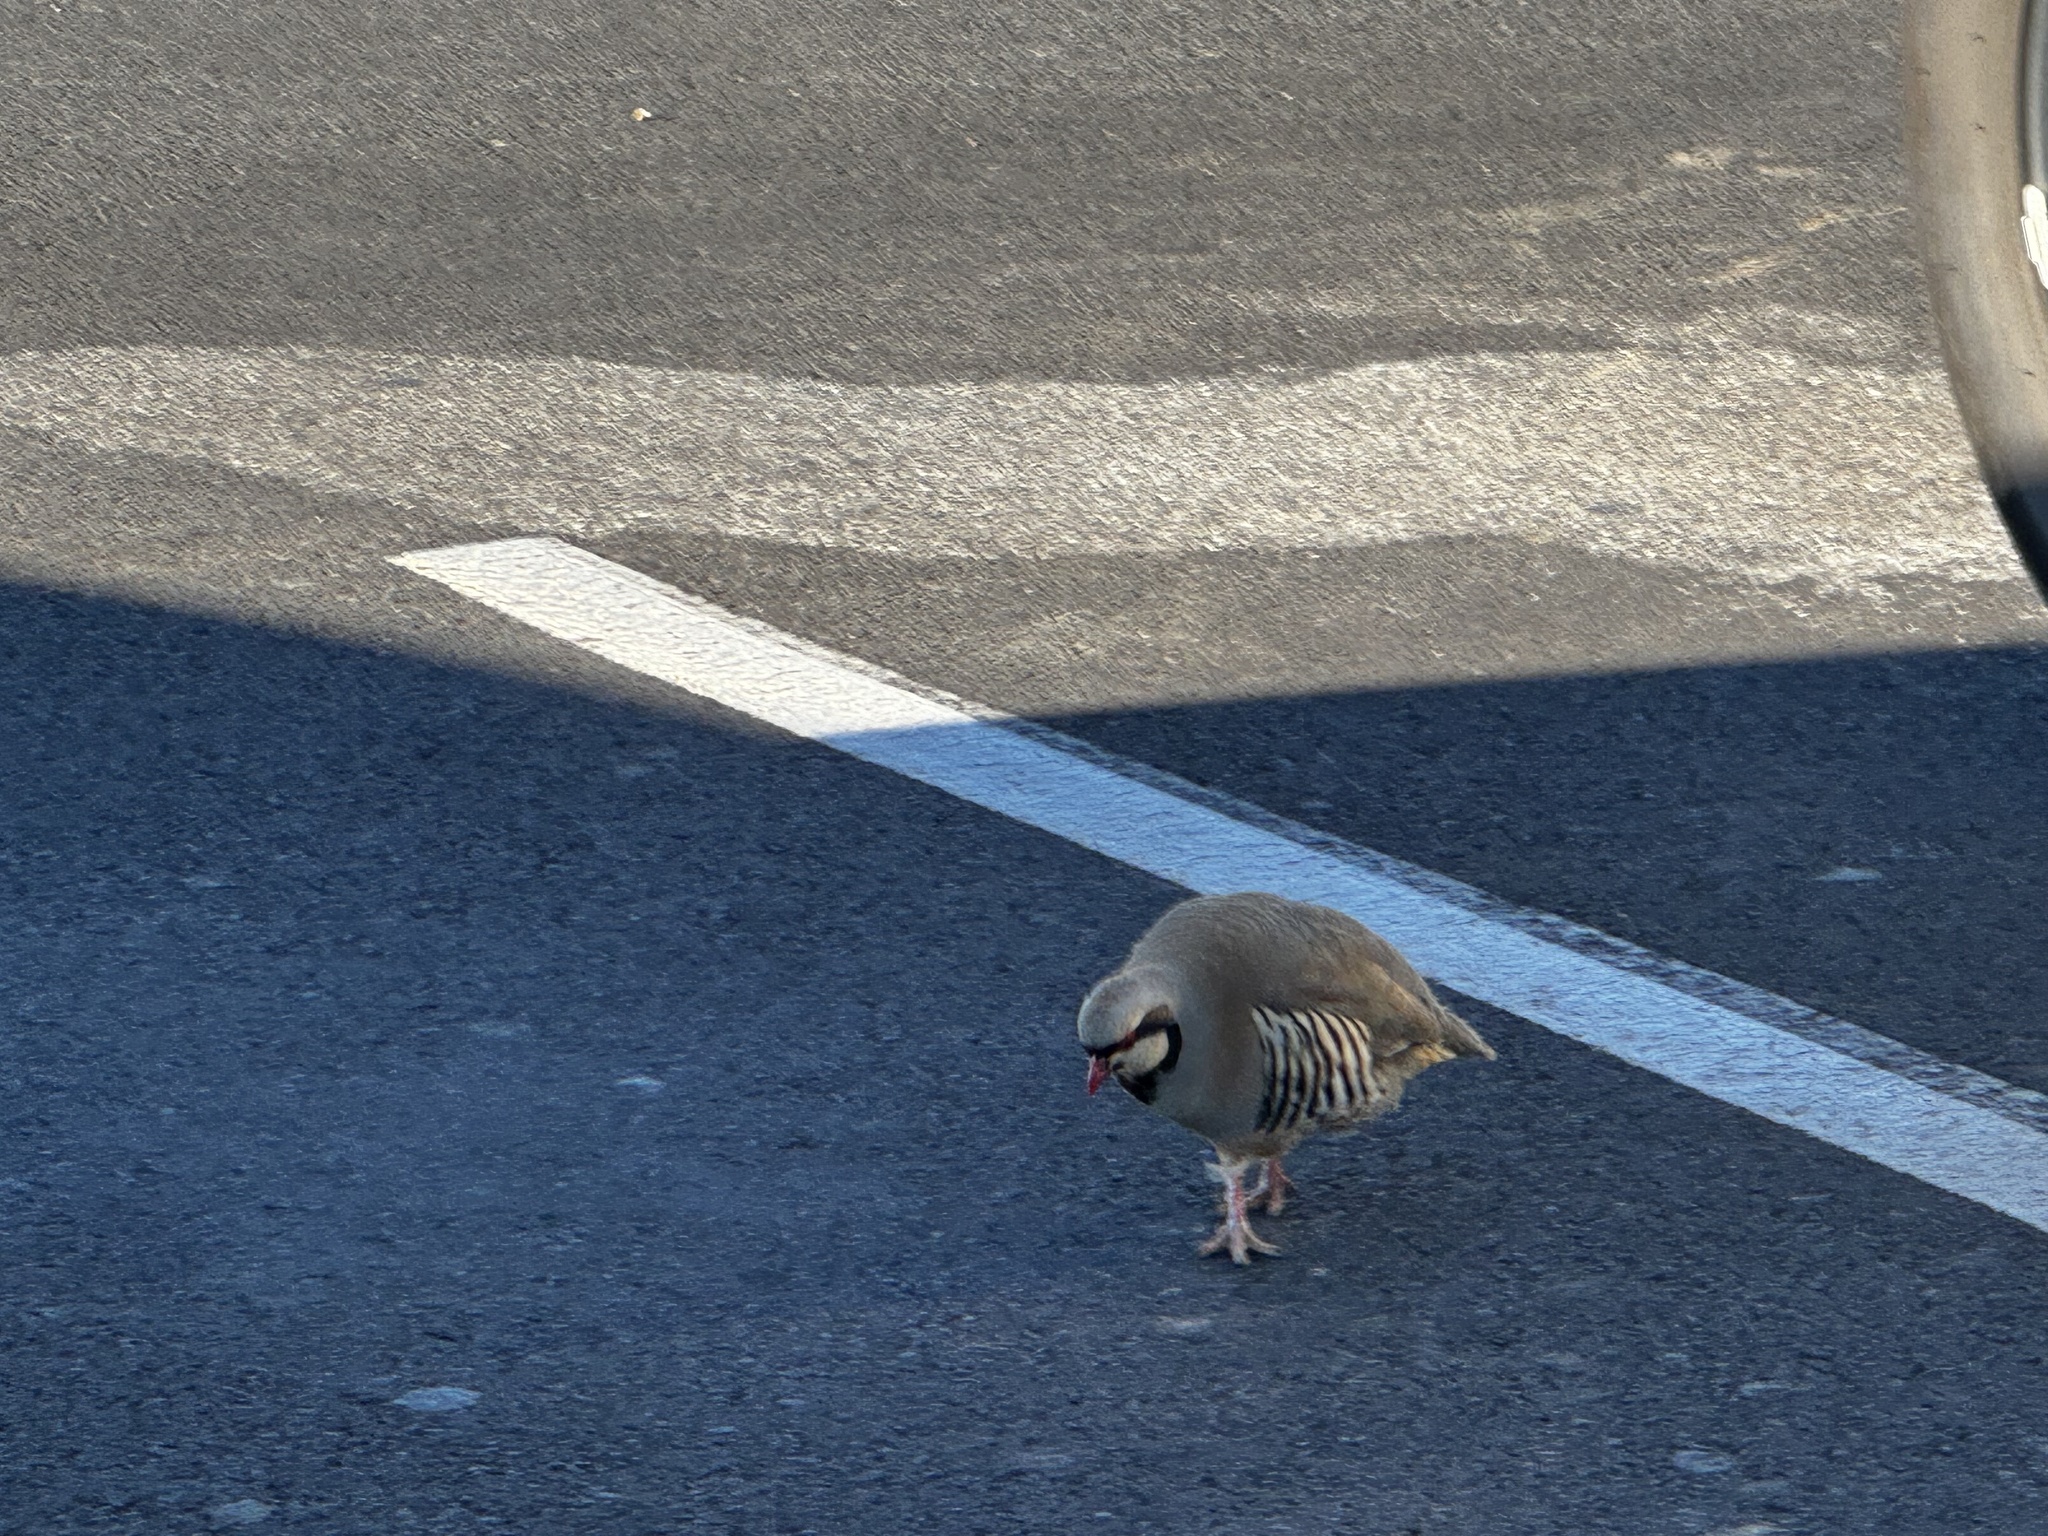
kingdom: Animalia
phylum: Chordata
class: Aves
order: Galliformes
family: Phasianidae
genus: Alectoris
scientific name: Alectoris chukar
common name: Chukar
